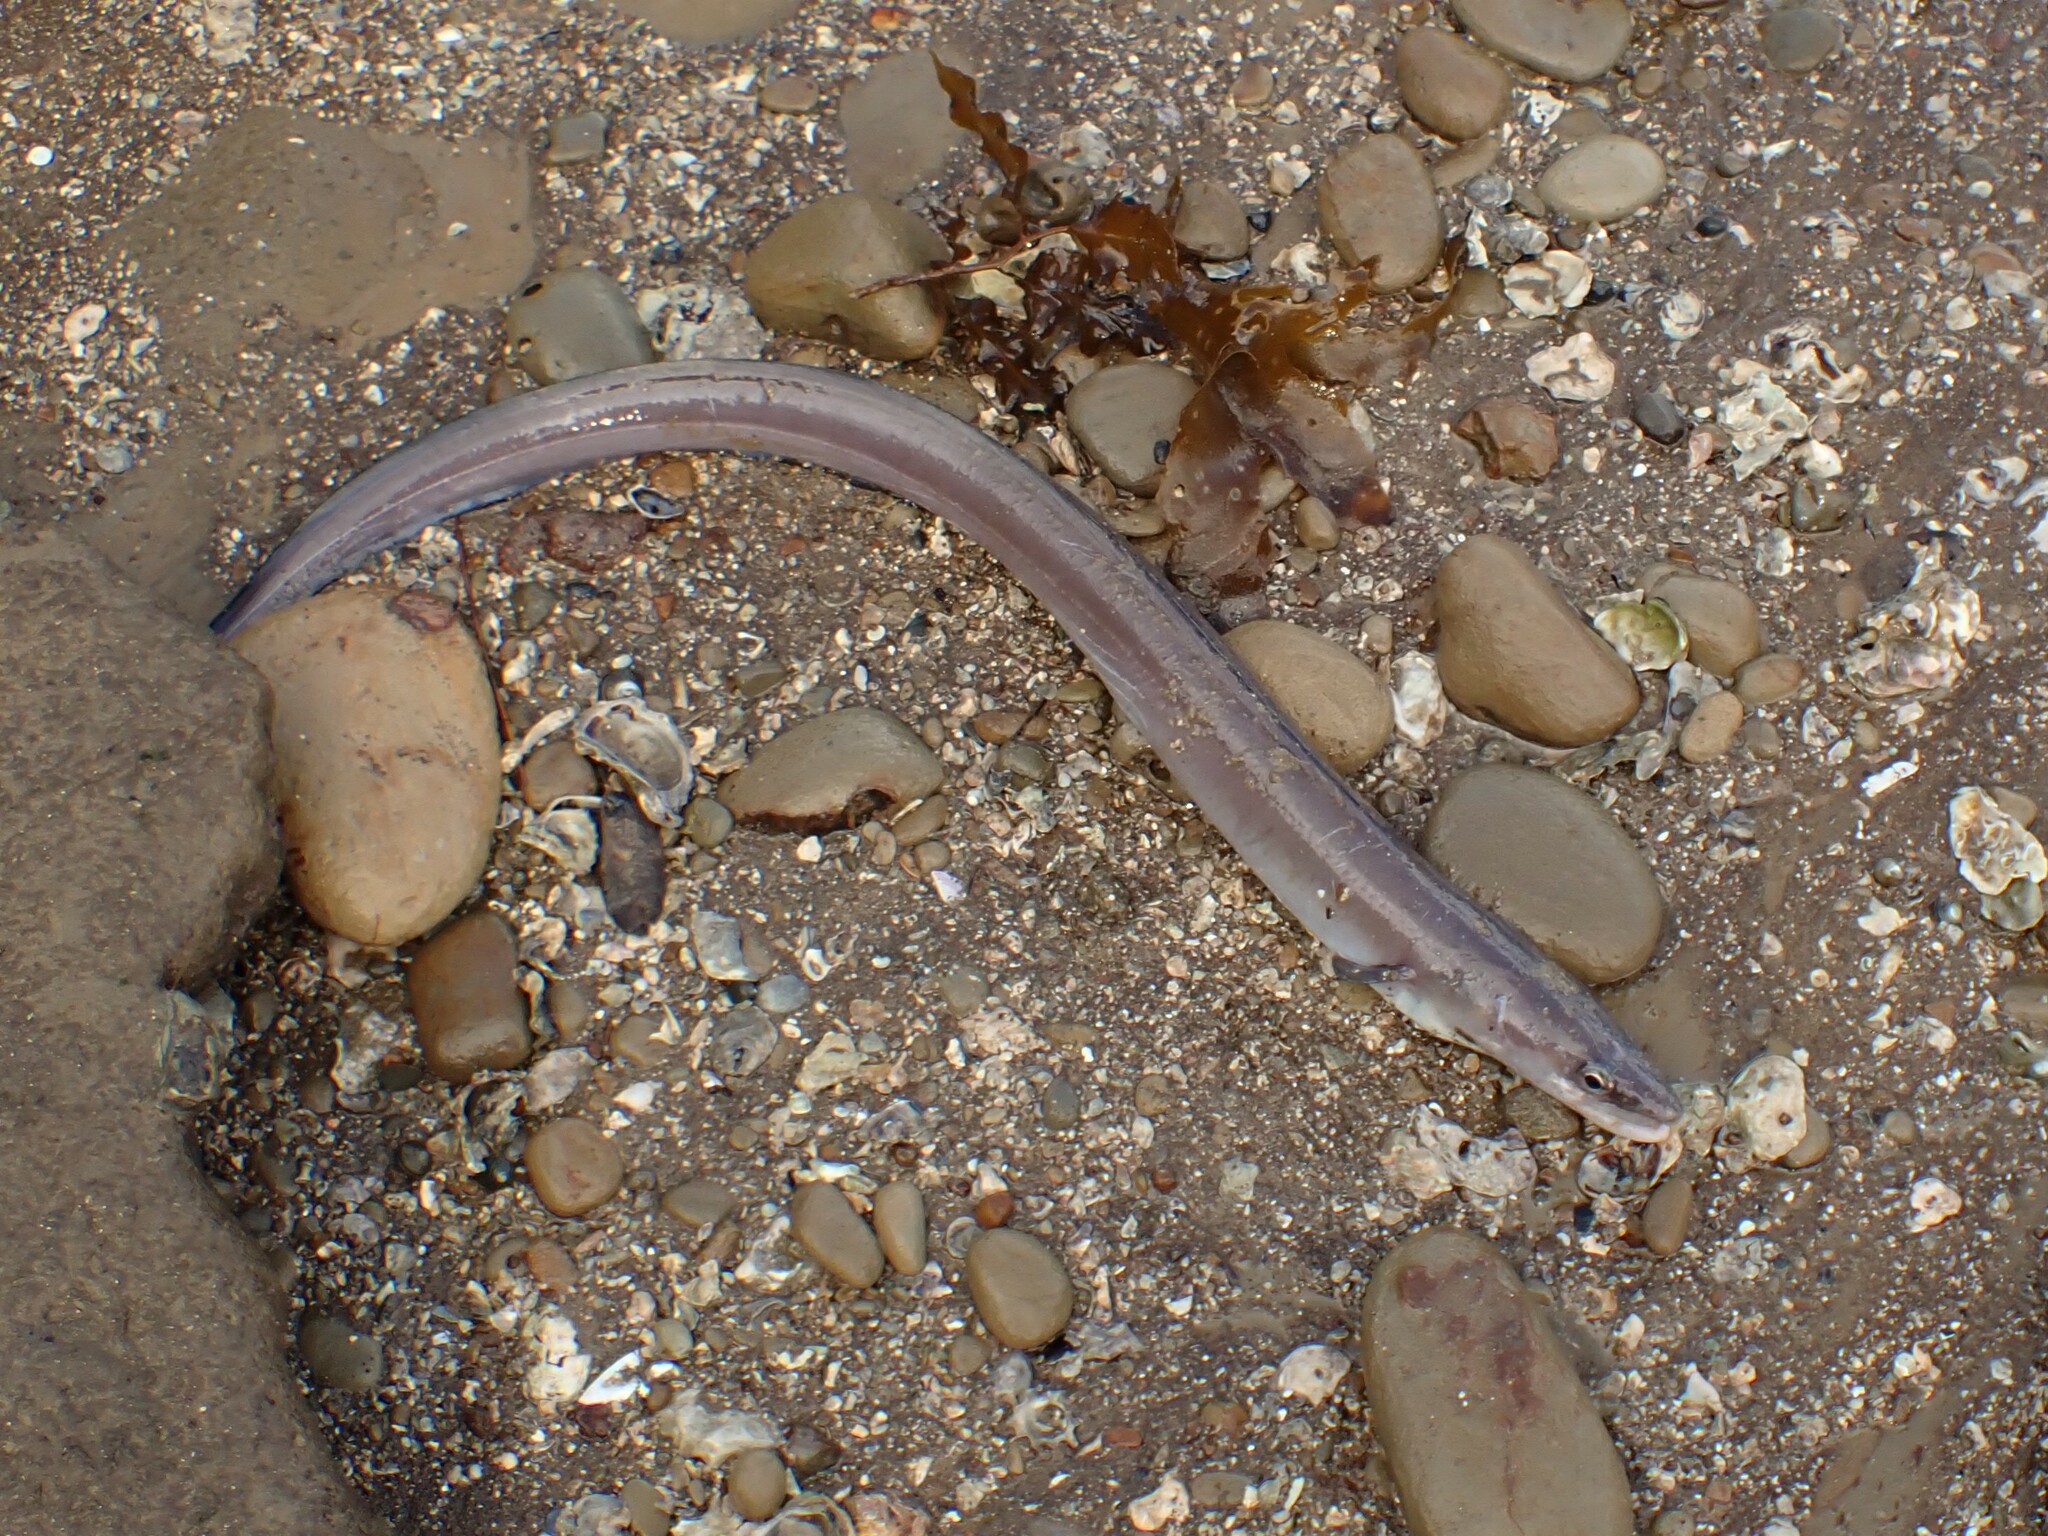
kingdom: Animalia
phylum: Chordata
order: Anguilliformes
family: Congridae
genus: Conger
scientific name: Conger monganius
